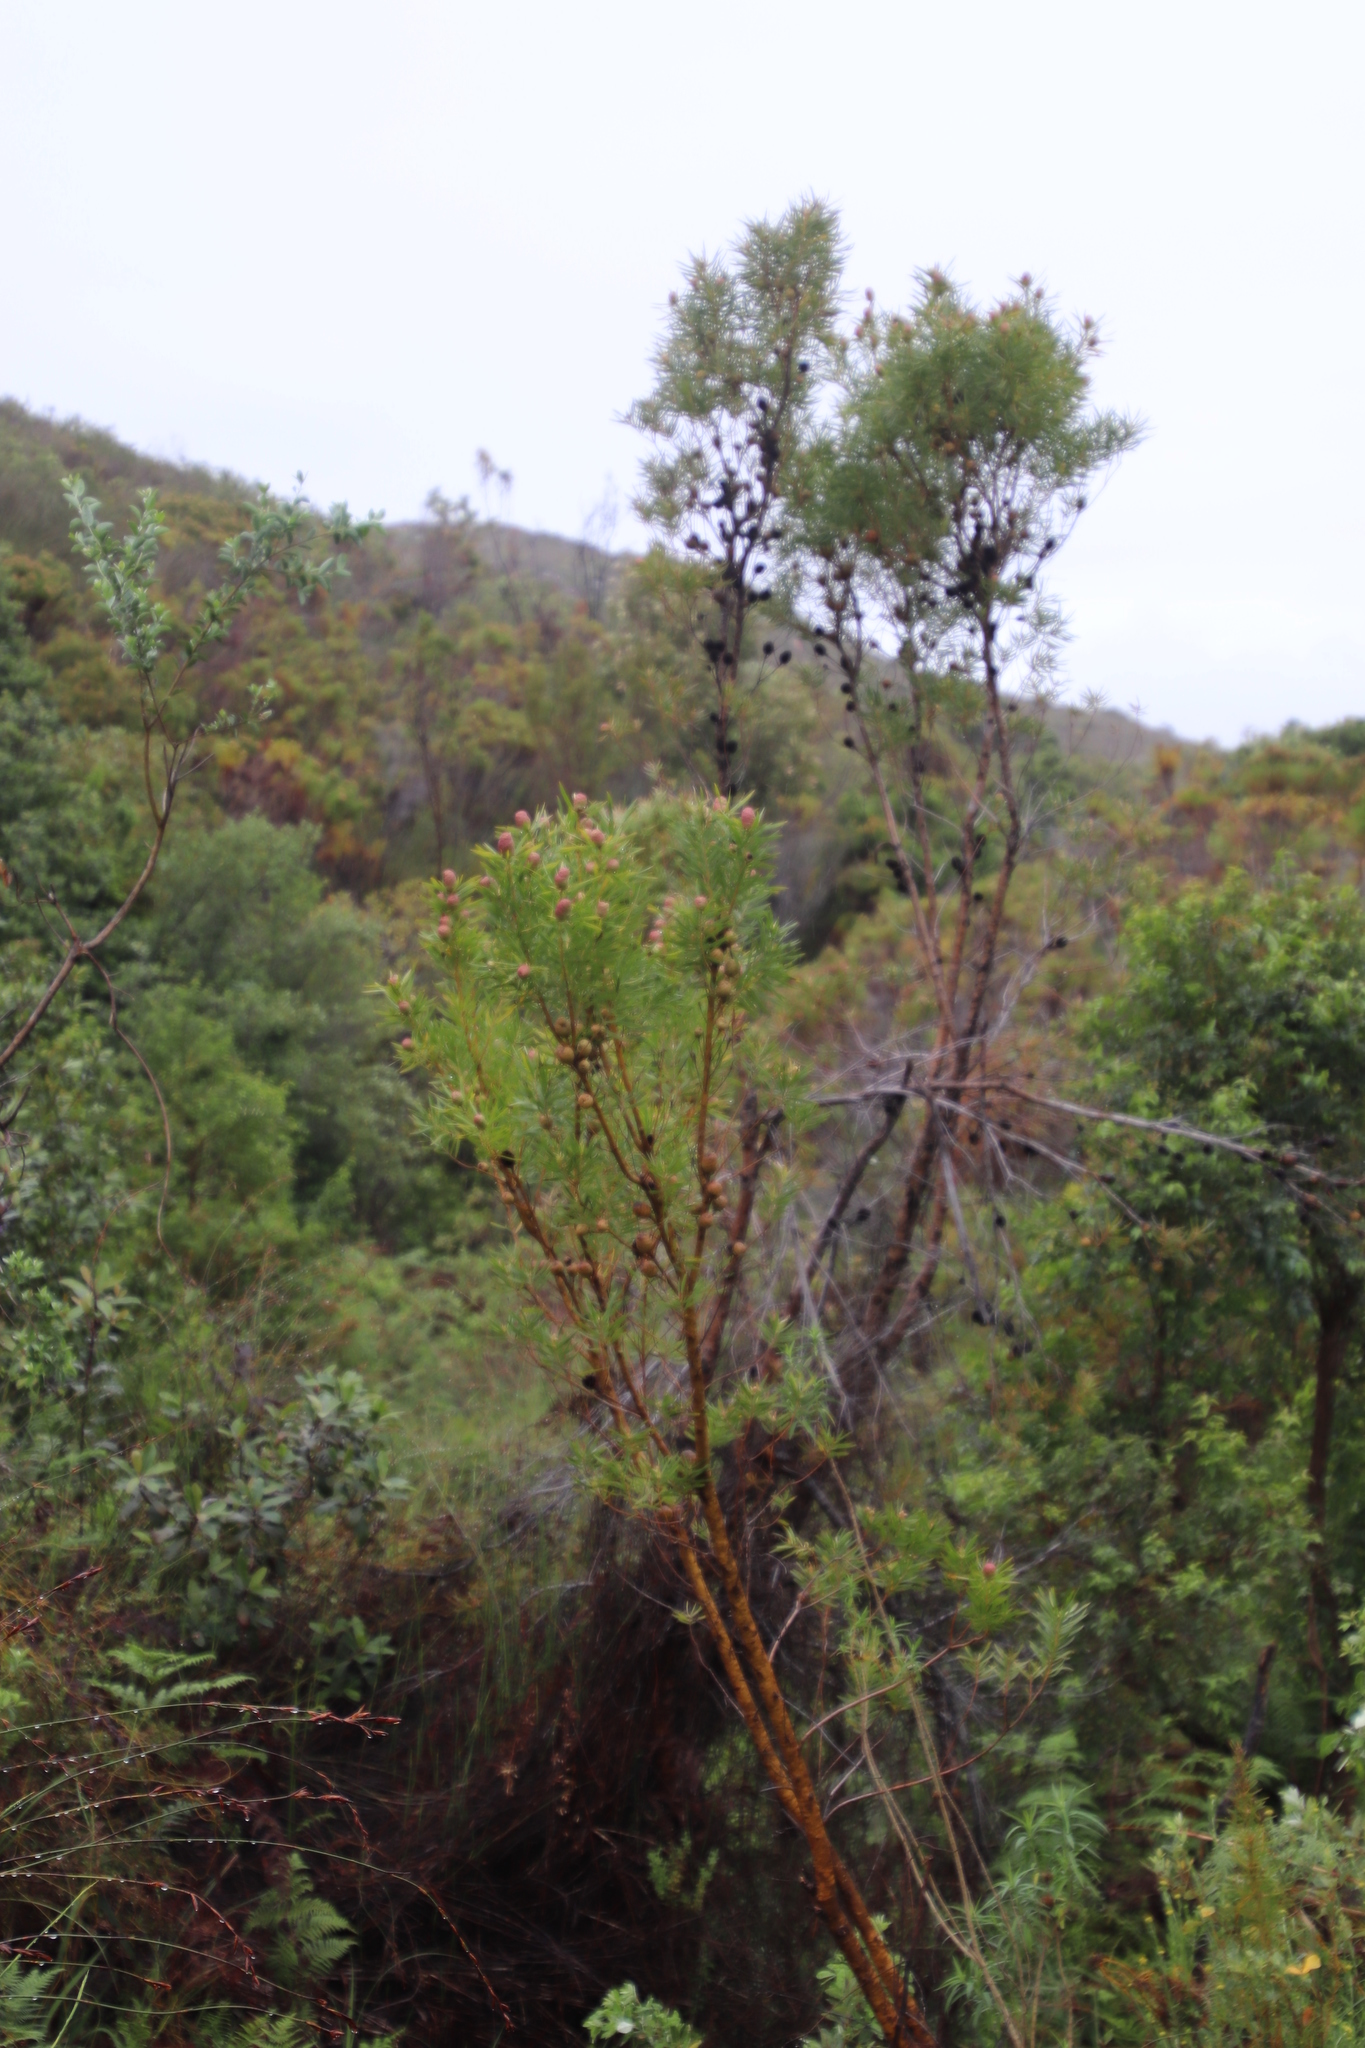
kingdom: Plantae
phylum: Tracheophyta
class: Magnoliopsida
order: Proteales
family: Proteaceae
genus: Leucadendron
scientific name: Leucadendron salicifolium
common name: Common stream conebush
